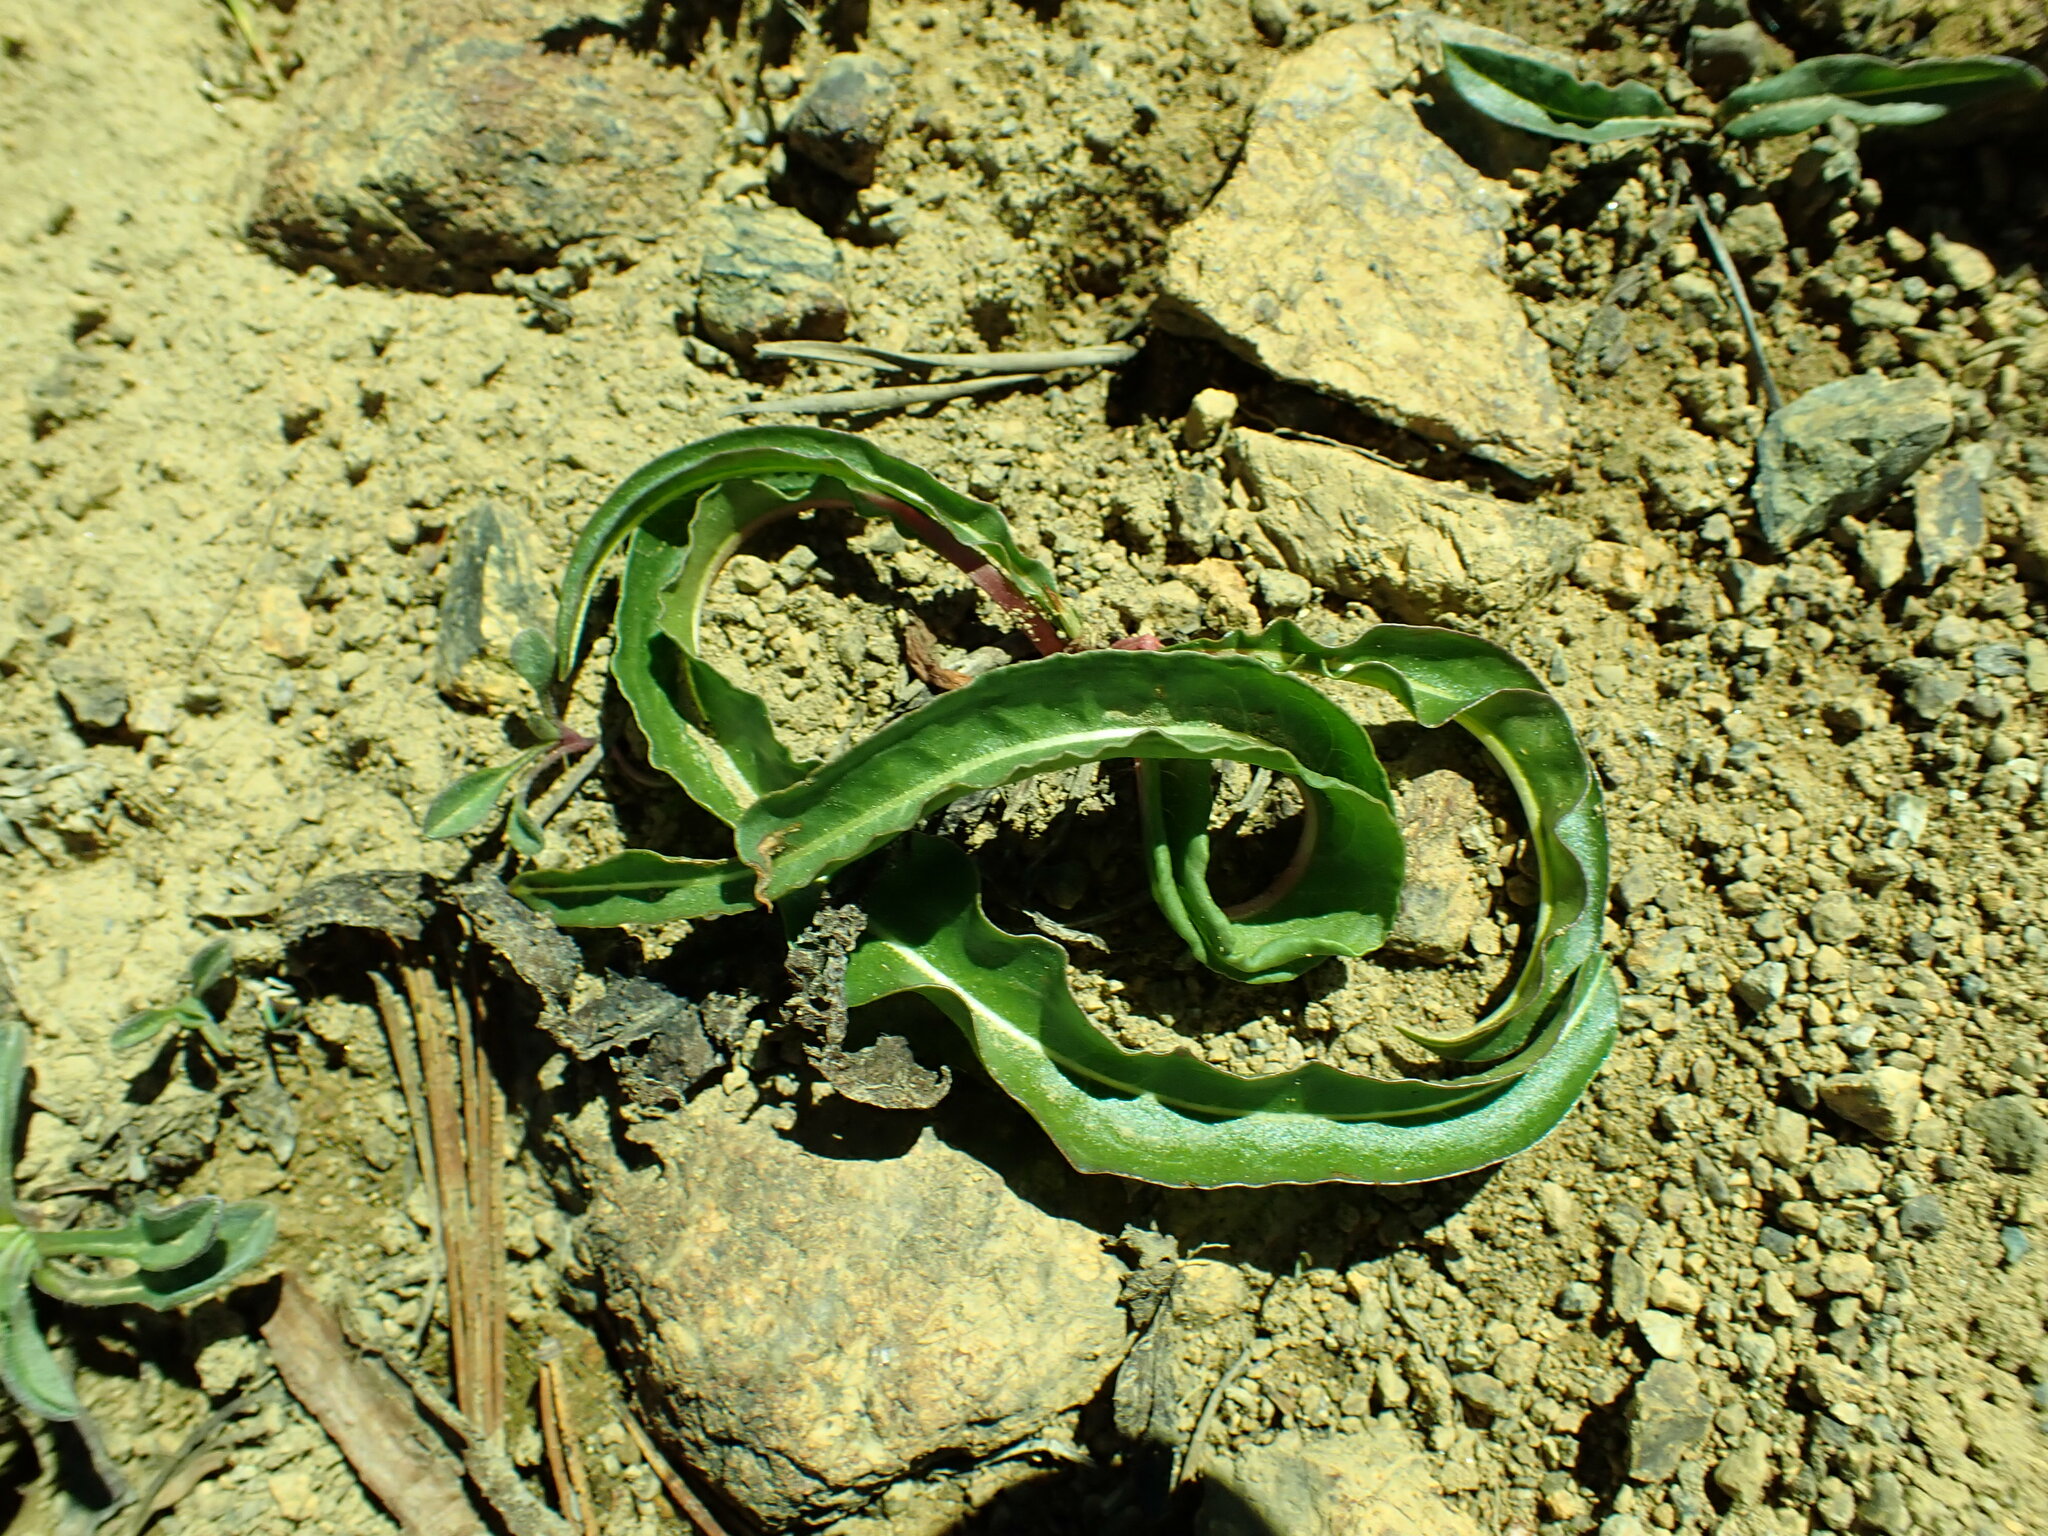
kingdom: Plantae
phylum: Tracheophyta
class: Magnoliopsida
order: Caryophyllales
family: Polygonaceae
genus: Bistorta
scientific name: Bistorta bistortoides
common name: American bistort
